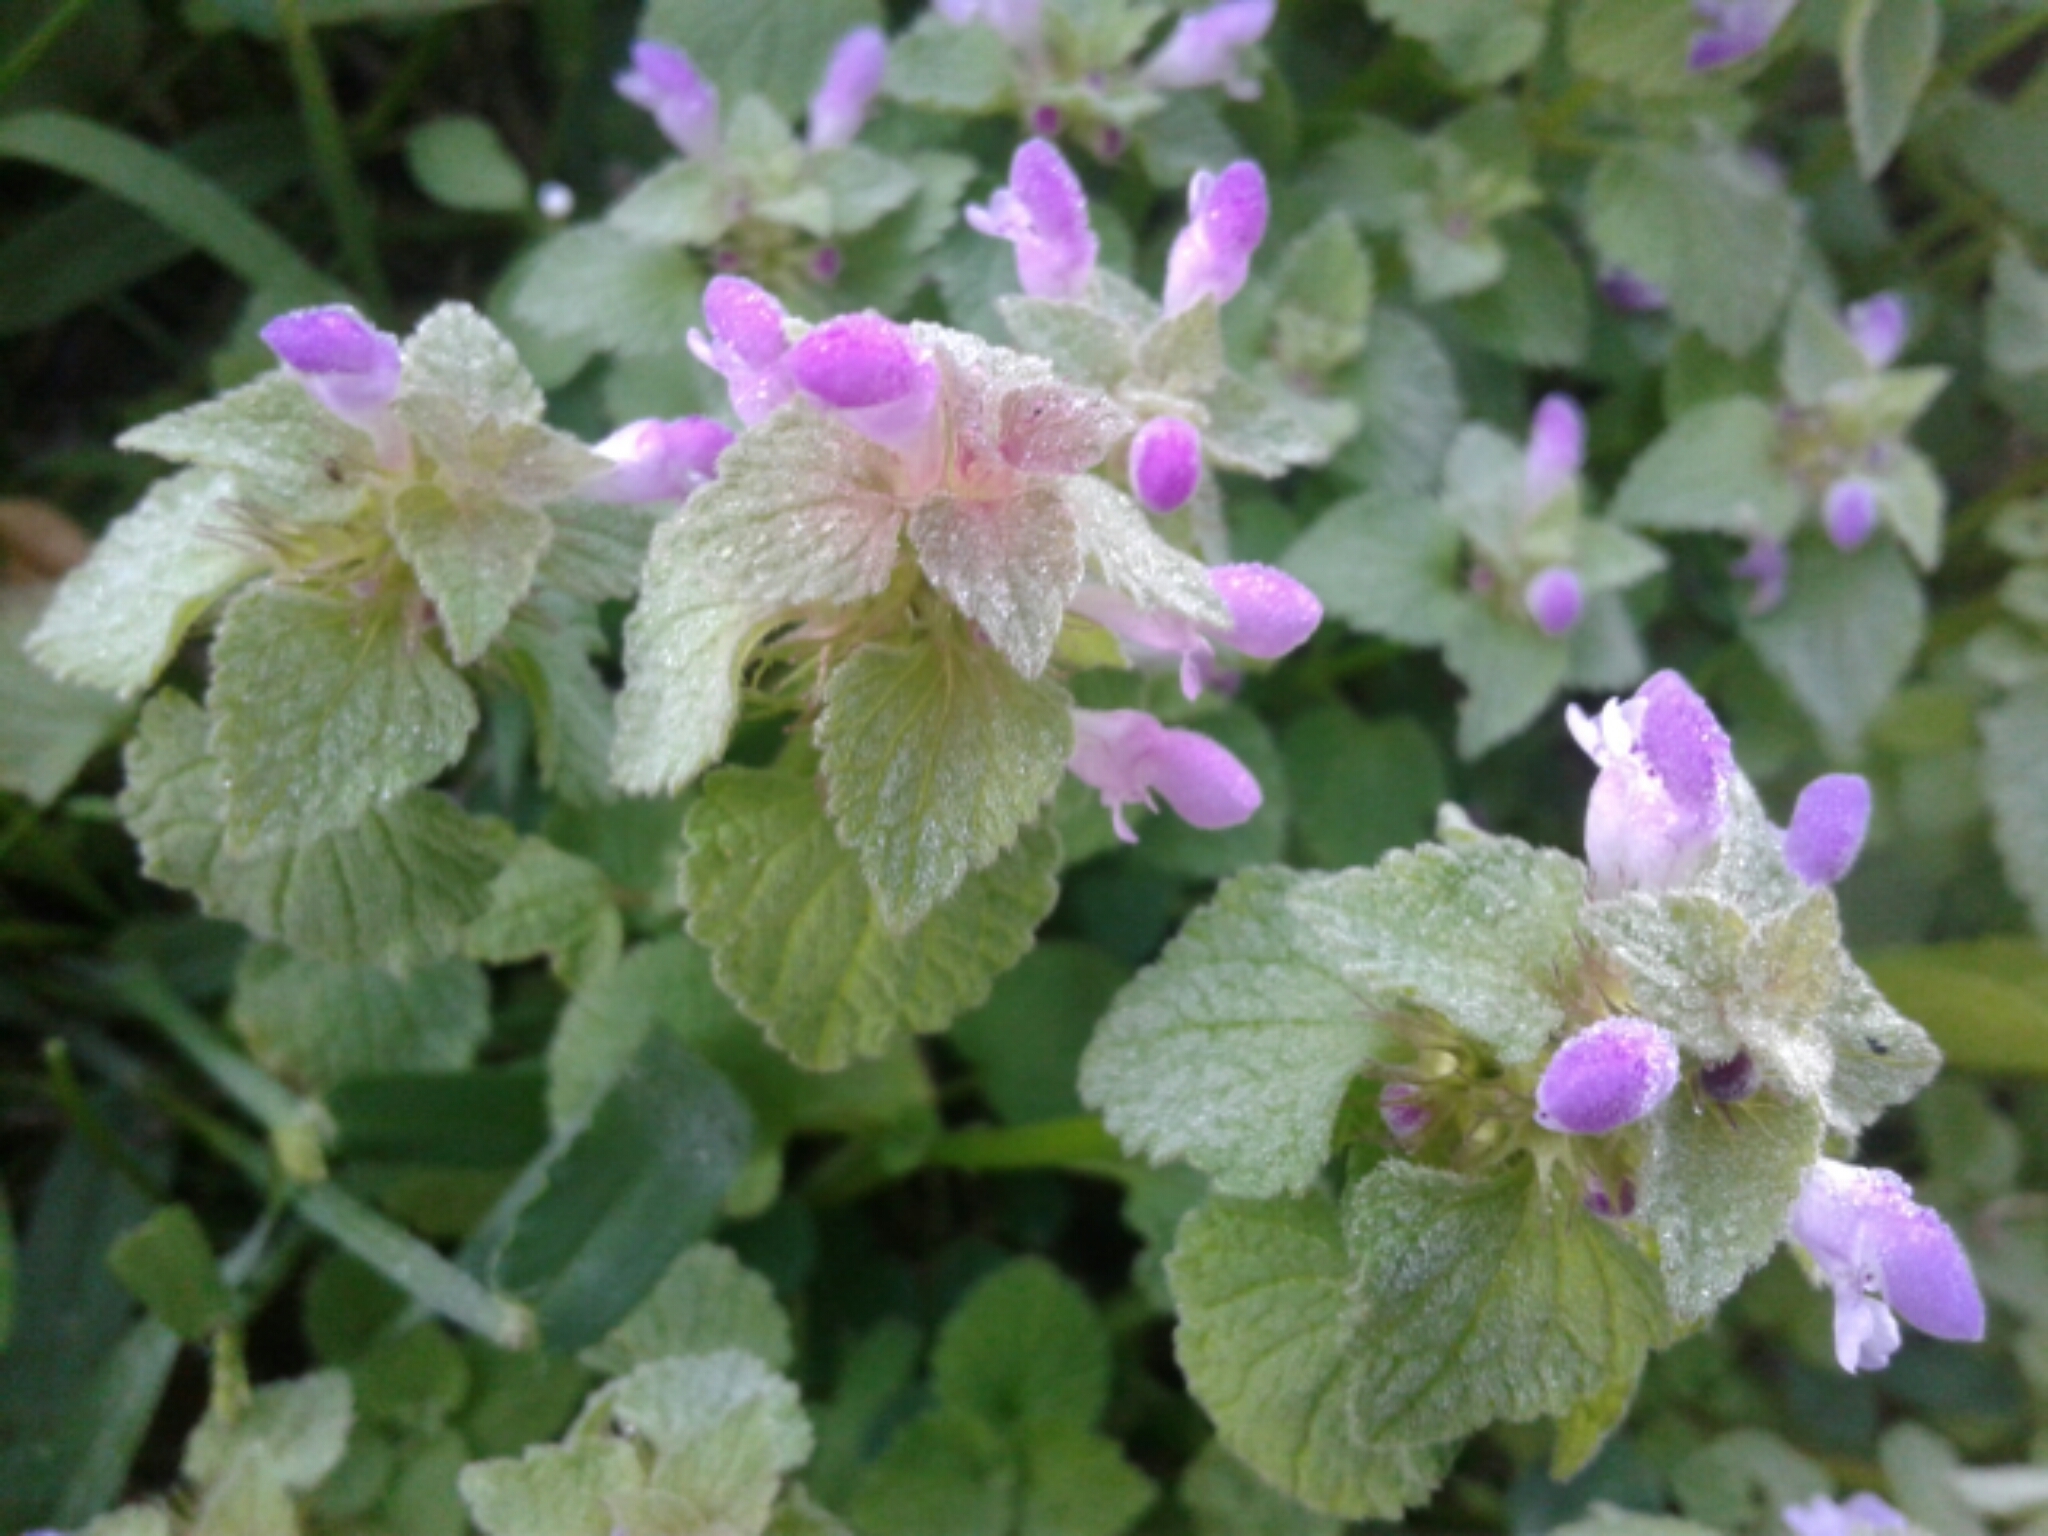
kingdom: Plantae
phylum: Tracheophyta
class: Magnoliopsida
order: Lamiales
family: Lamiaceae
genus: Lamium
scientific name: Lamium purpureum
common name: Red dead-nettle
